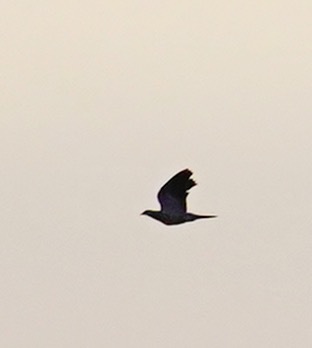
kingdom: Animalia
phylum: Chordata
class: Aves
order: Columbiformes
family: Columbidae
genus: Patagioenas
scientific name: Patagioenas fasciata
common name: Band-tailed pigeon
